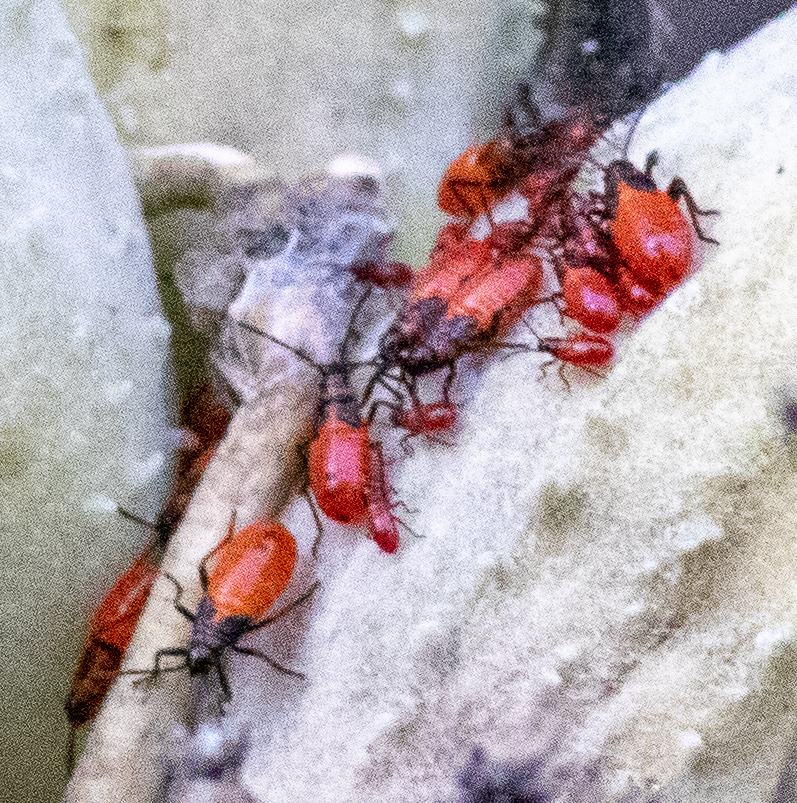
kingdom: Animalia
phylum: Arthropoda
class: Insecta
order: Hemiptera
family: Lygaeidae
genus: Oncopeltus
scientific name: Oncopeltus fasciatus
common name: Large milkweed bug
